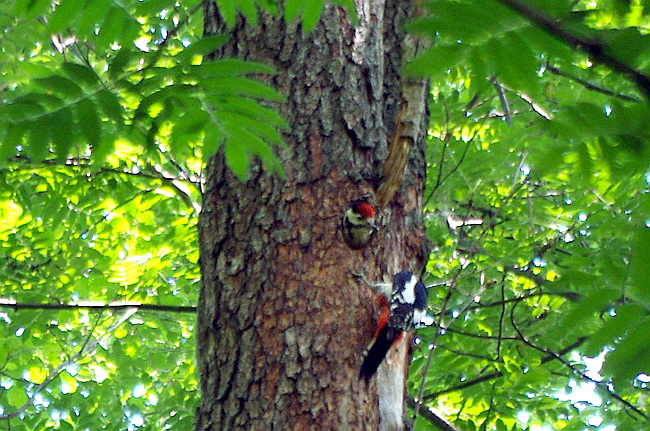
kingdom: Animalia
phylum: Chordata
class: Aves
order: Piciformes
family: Picidae
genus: Dendrocopos
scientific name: Dendrocopos major
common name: Great spotted woodpecker
